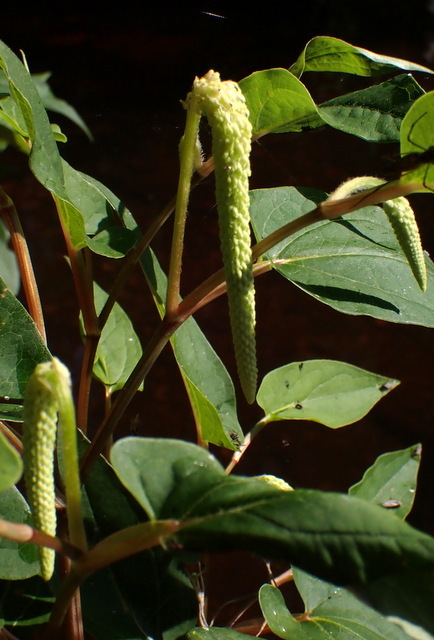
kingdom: Plantae
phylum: Tracheophyta
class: Magnoliopsida
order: Piperales
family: Saururaceae
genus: Saururus
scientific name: Saururus cernuus
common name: Lizard's-tail
